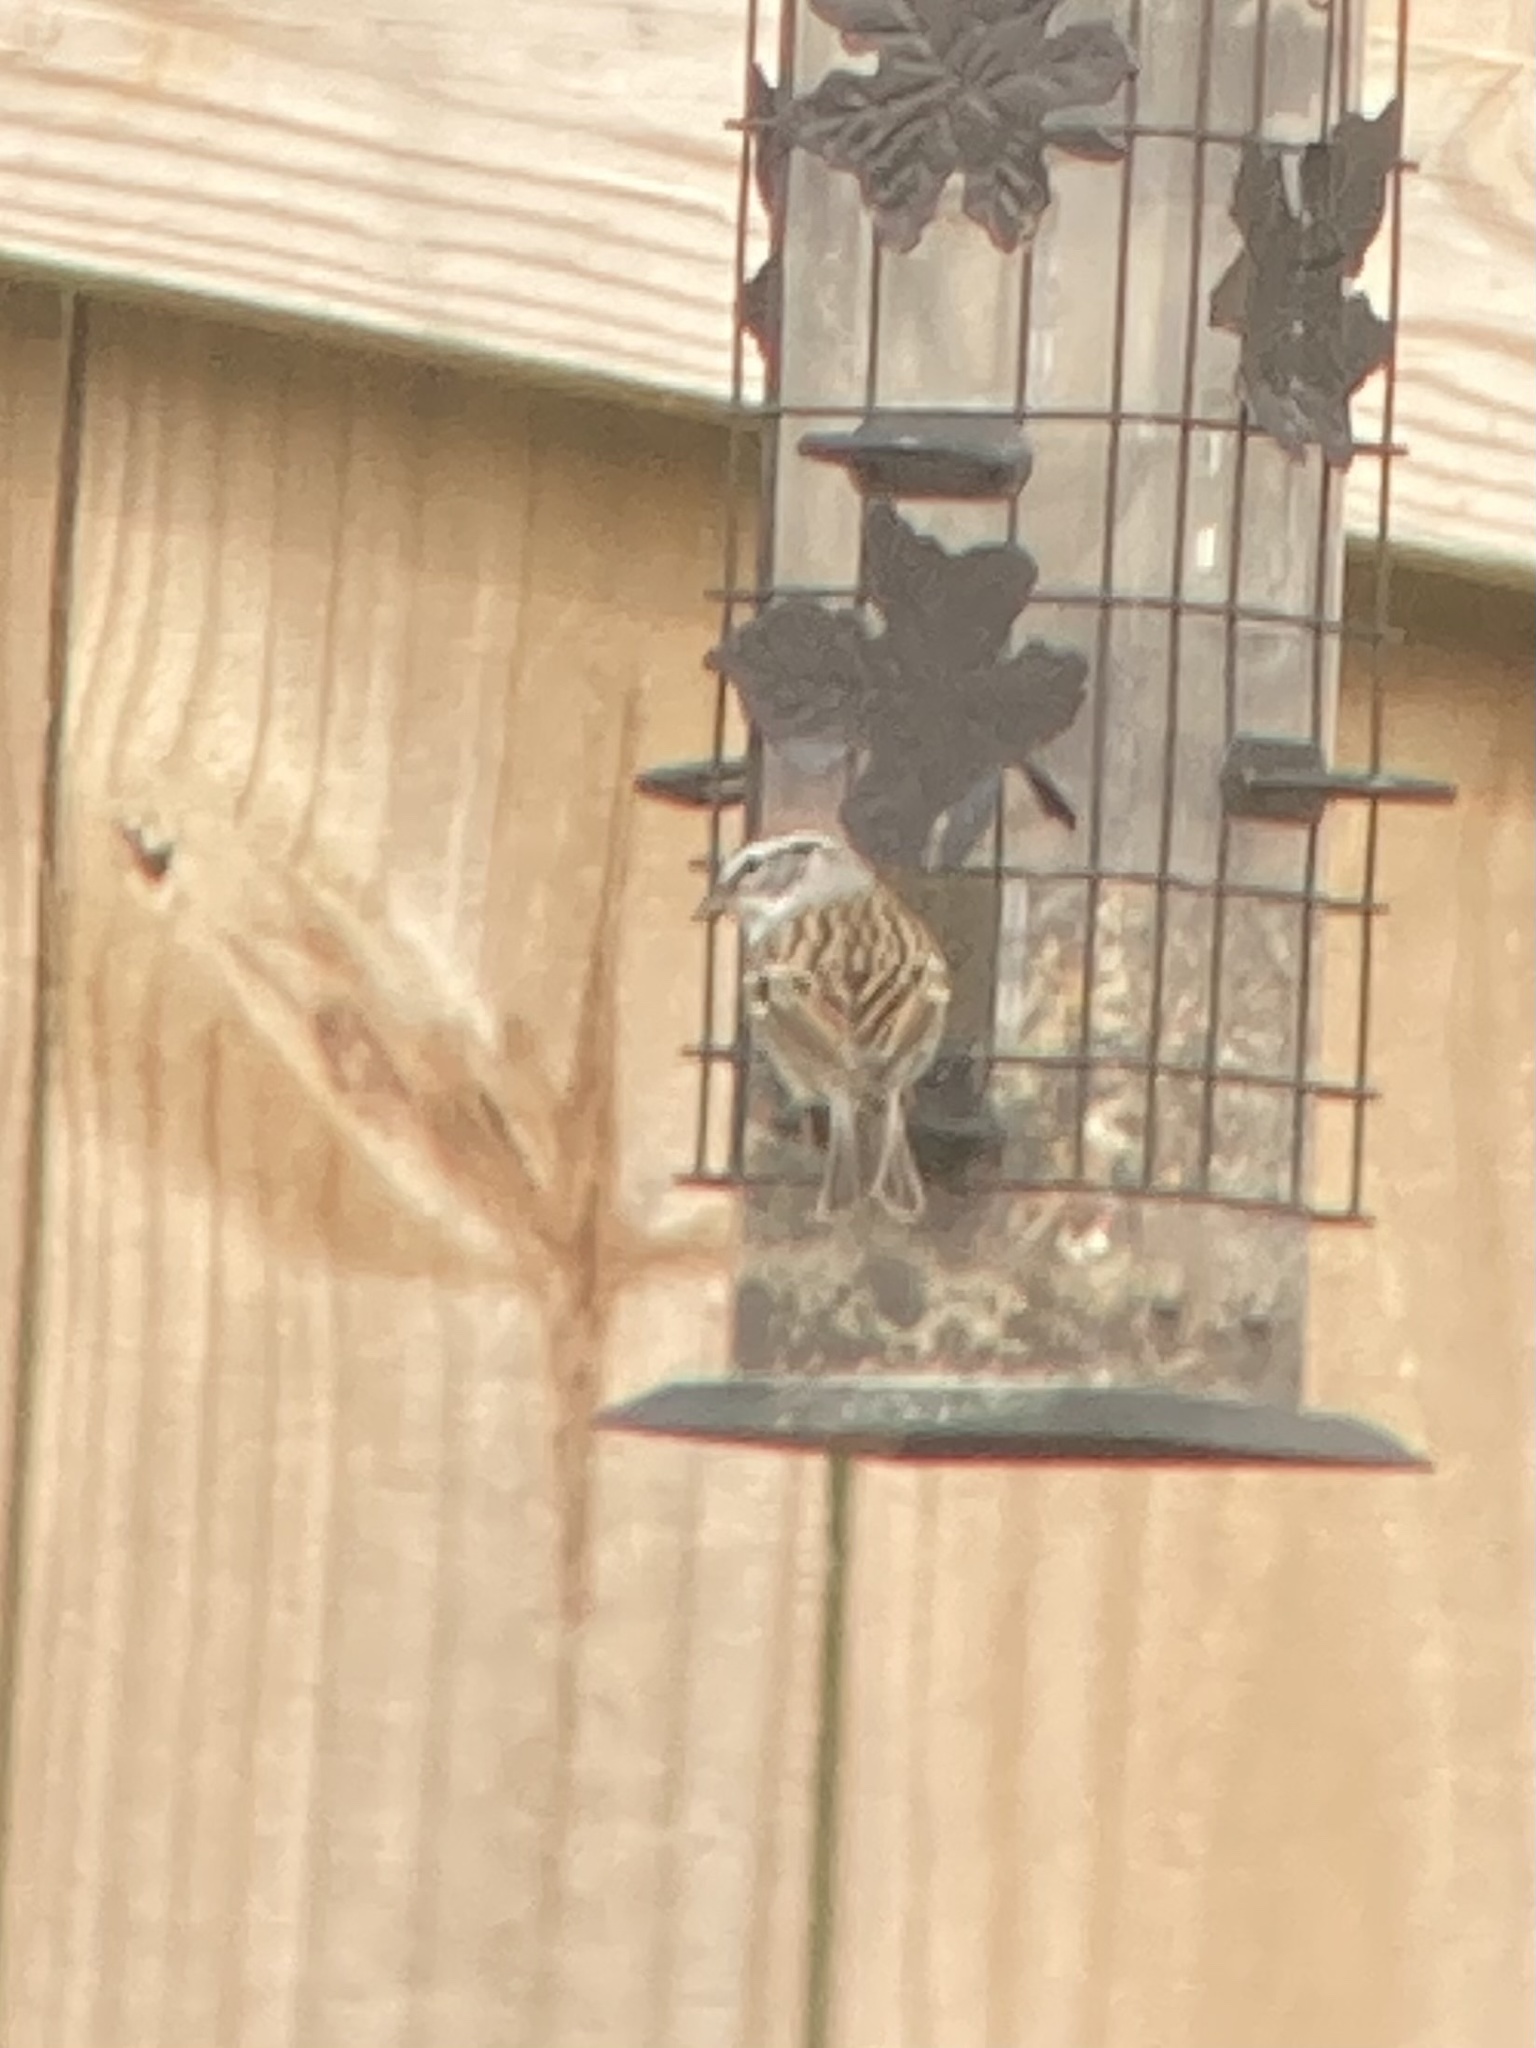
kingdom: Animalia
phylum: Chordata
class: Aves
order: Passeriformes
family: Passerellidae
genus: Spizella
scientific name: Spizella pusilla
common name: Field sparrow
